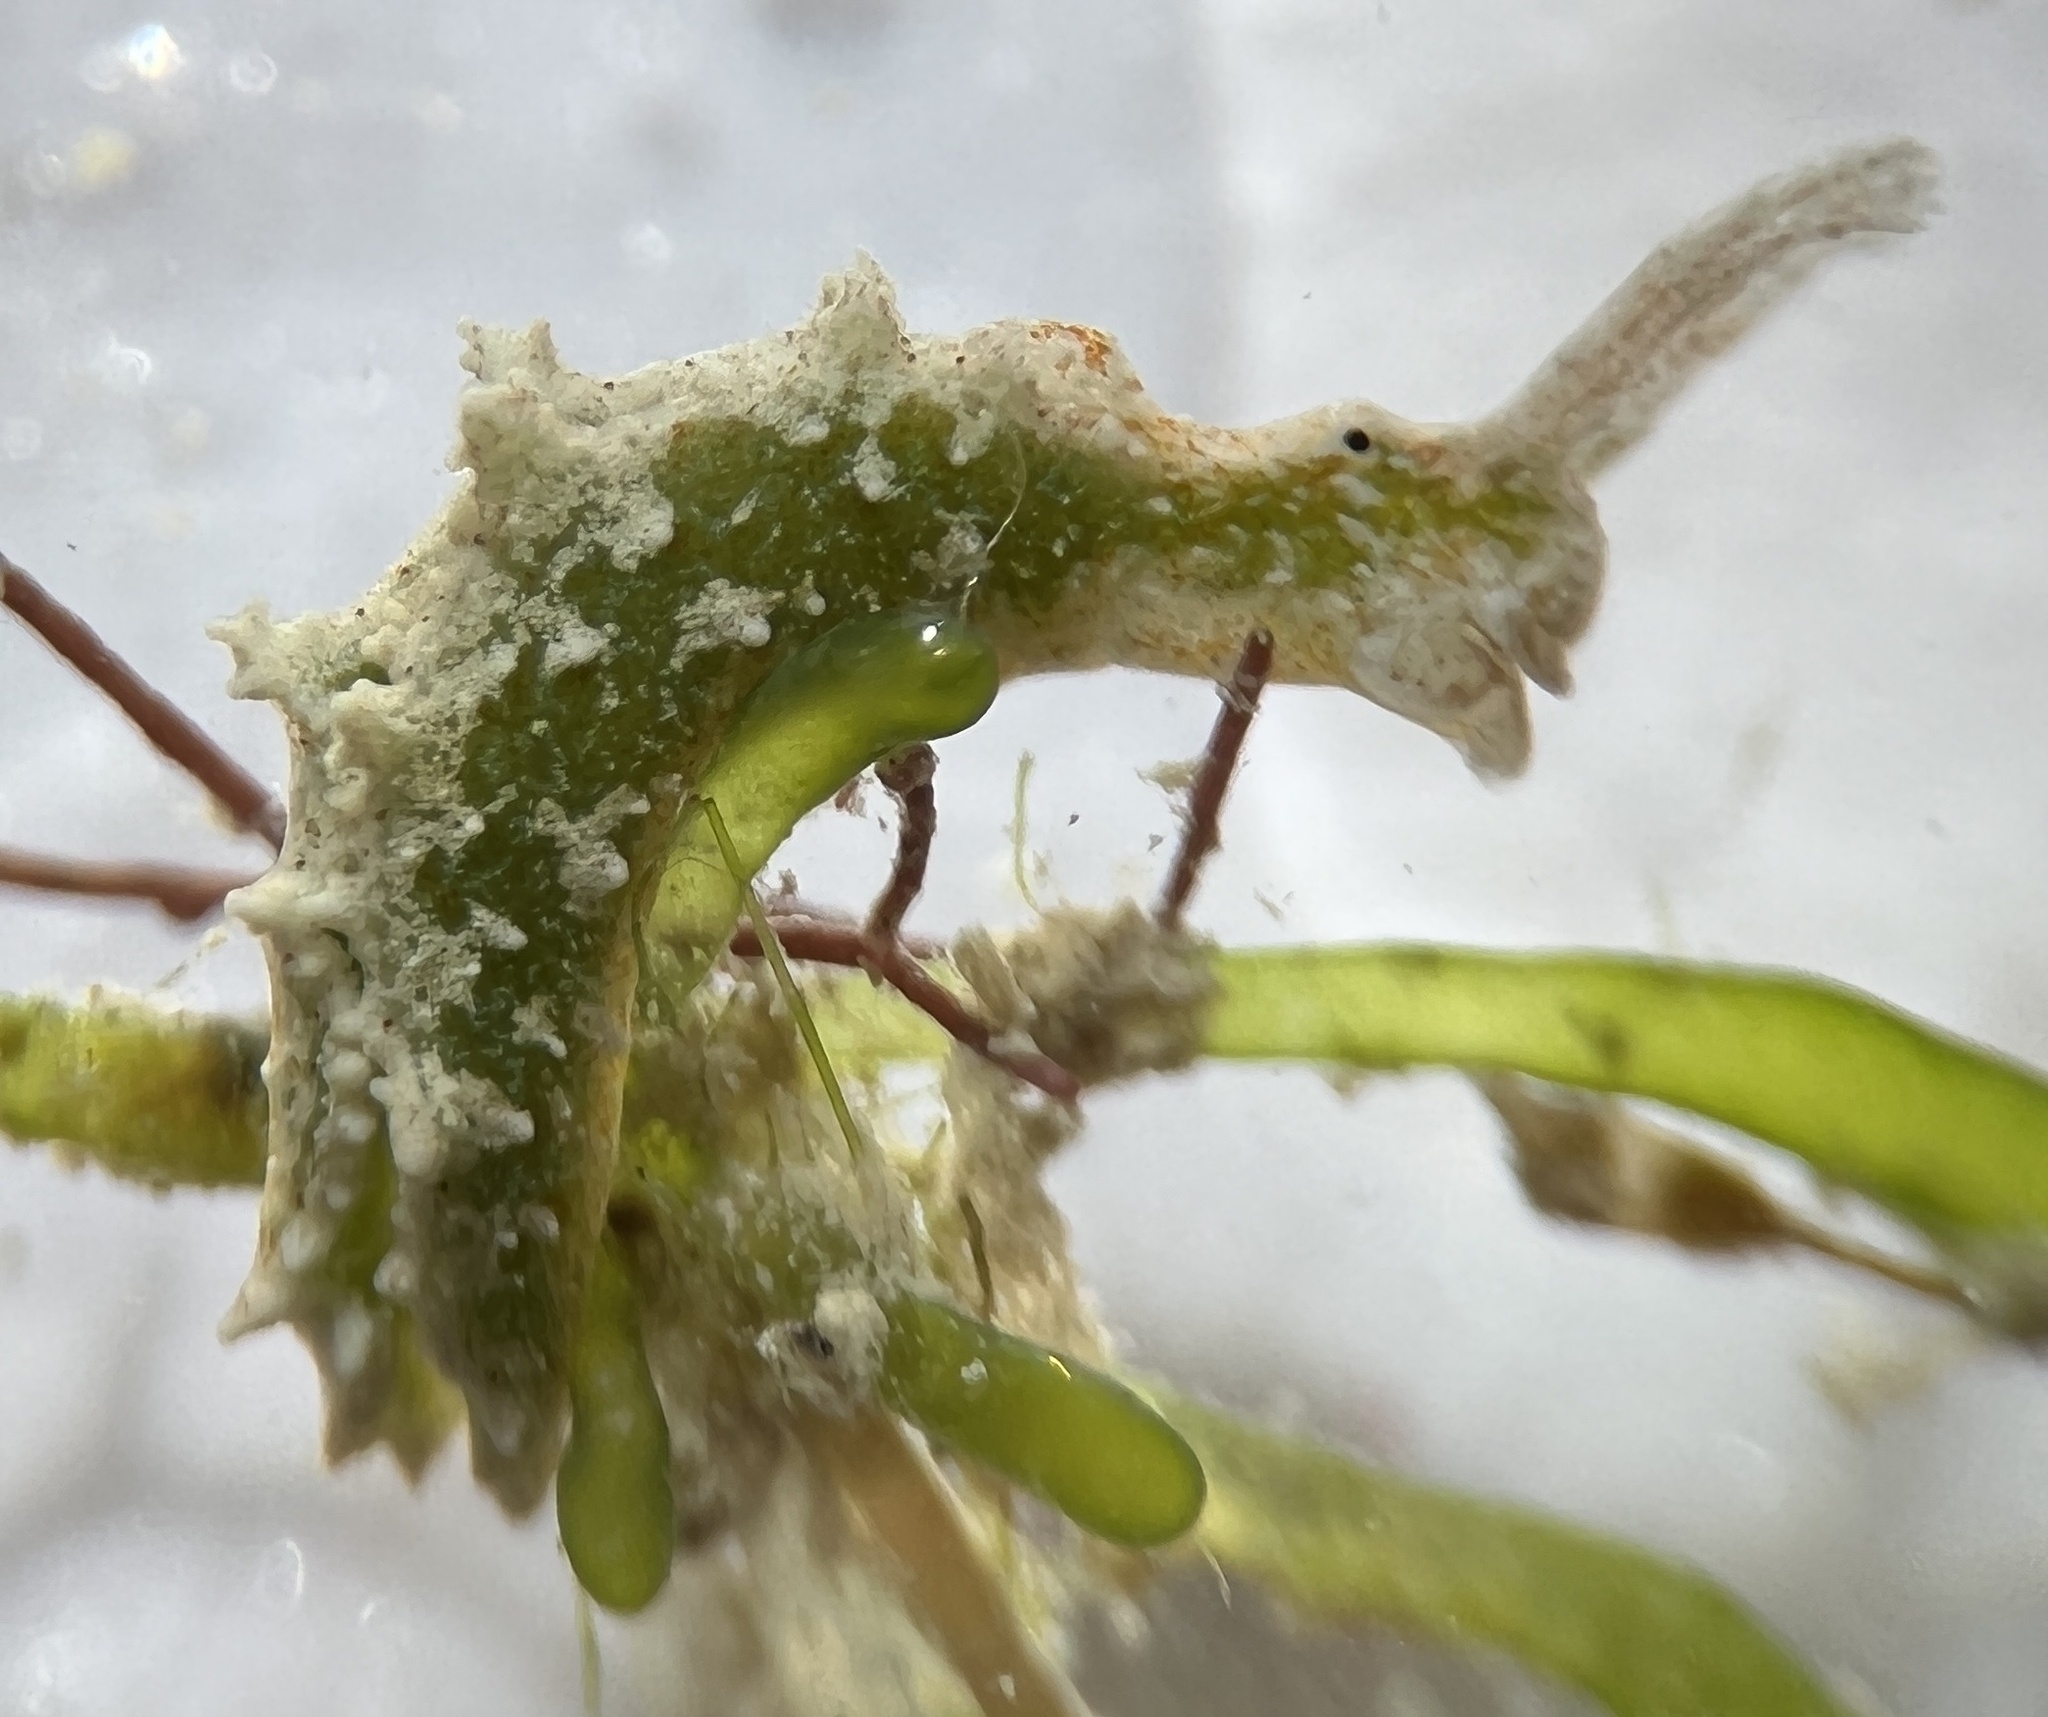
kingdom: Animalia
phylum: Mollusca
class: Gastropoda
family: Plakobranchidae
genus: Elysia
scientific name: Elysia papillosa
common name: Papillose elysia
